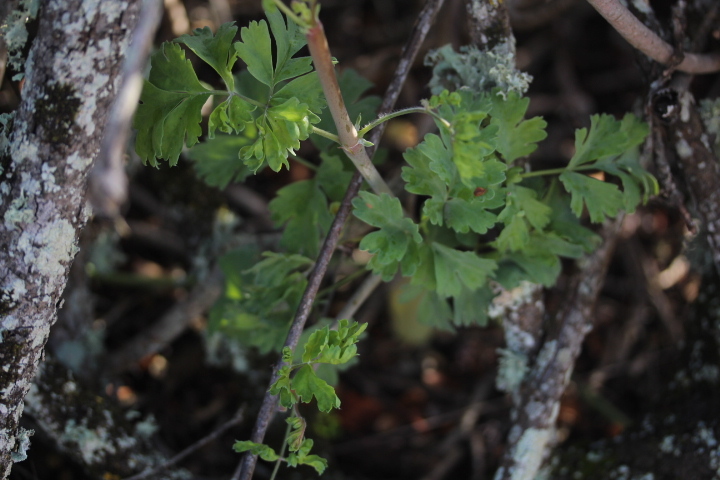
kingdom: Plantae
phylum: Tracheophyta
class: Magnoliopsida
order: Geraniales
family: Geraniaceae
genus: Pelargonium
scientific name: Pelargonium gibbosum
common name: Gouty geranium
